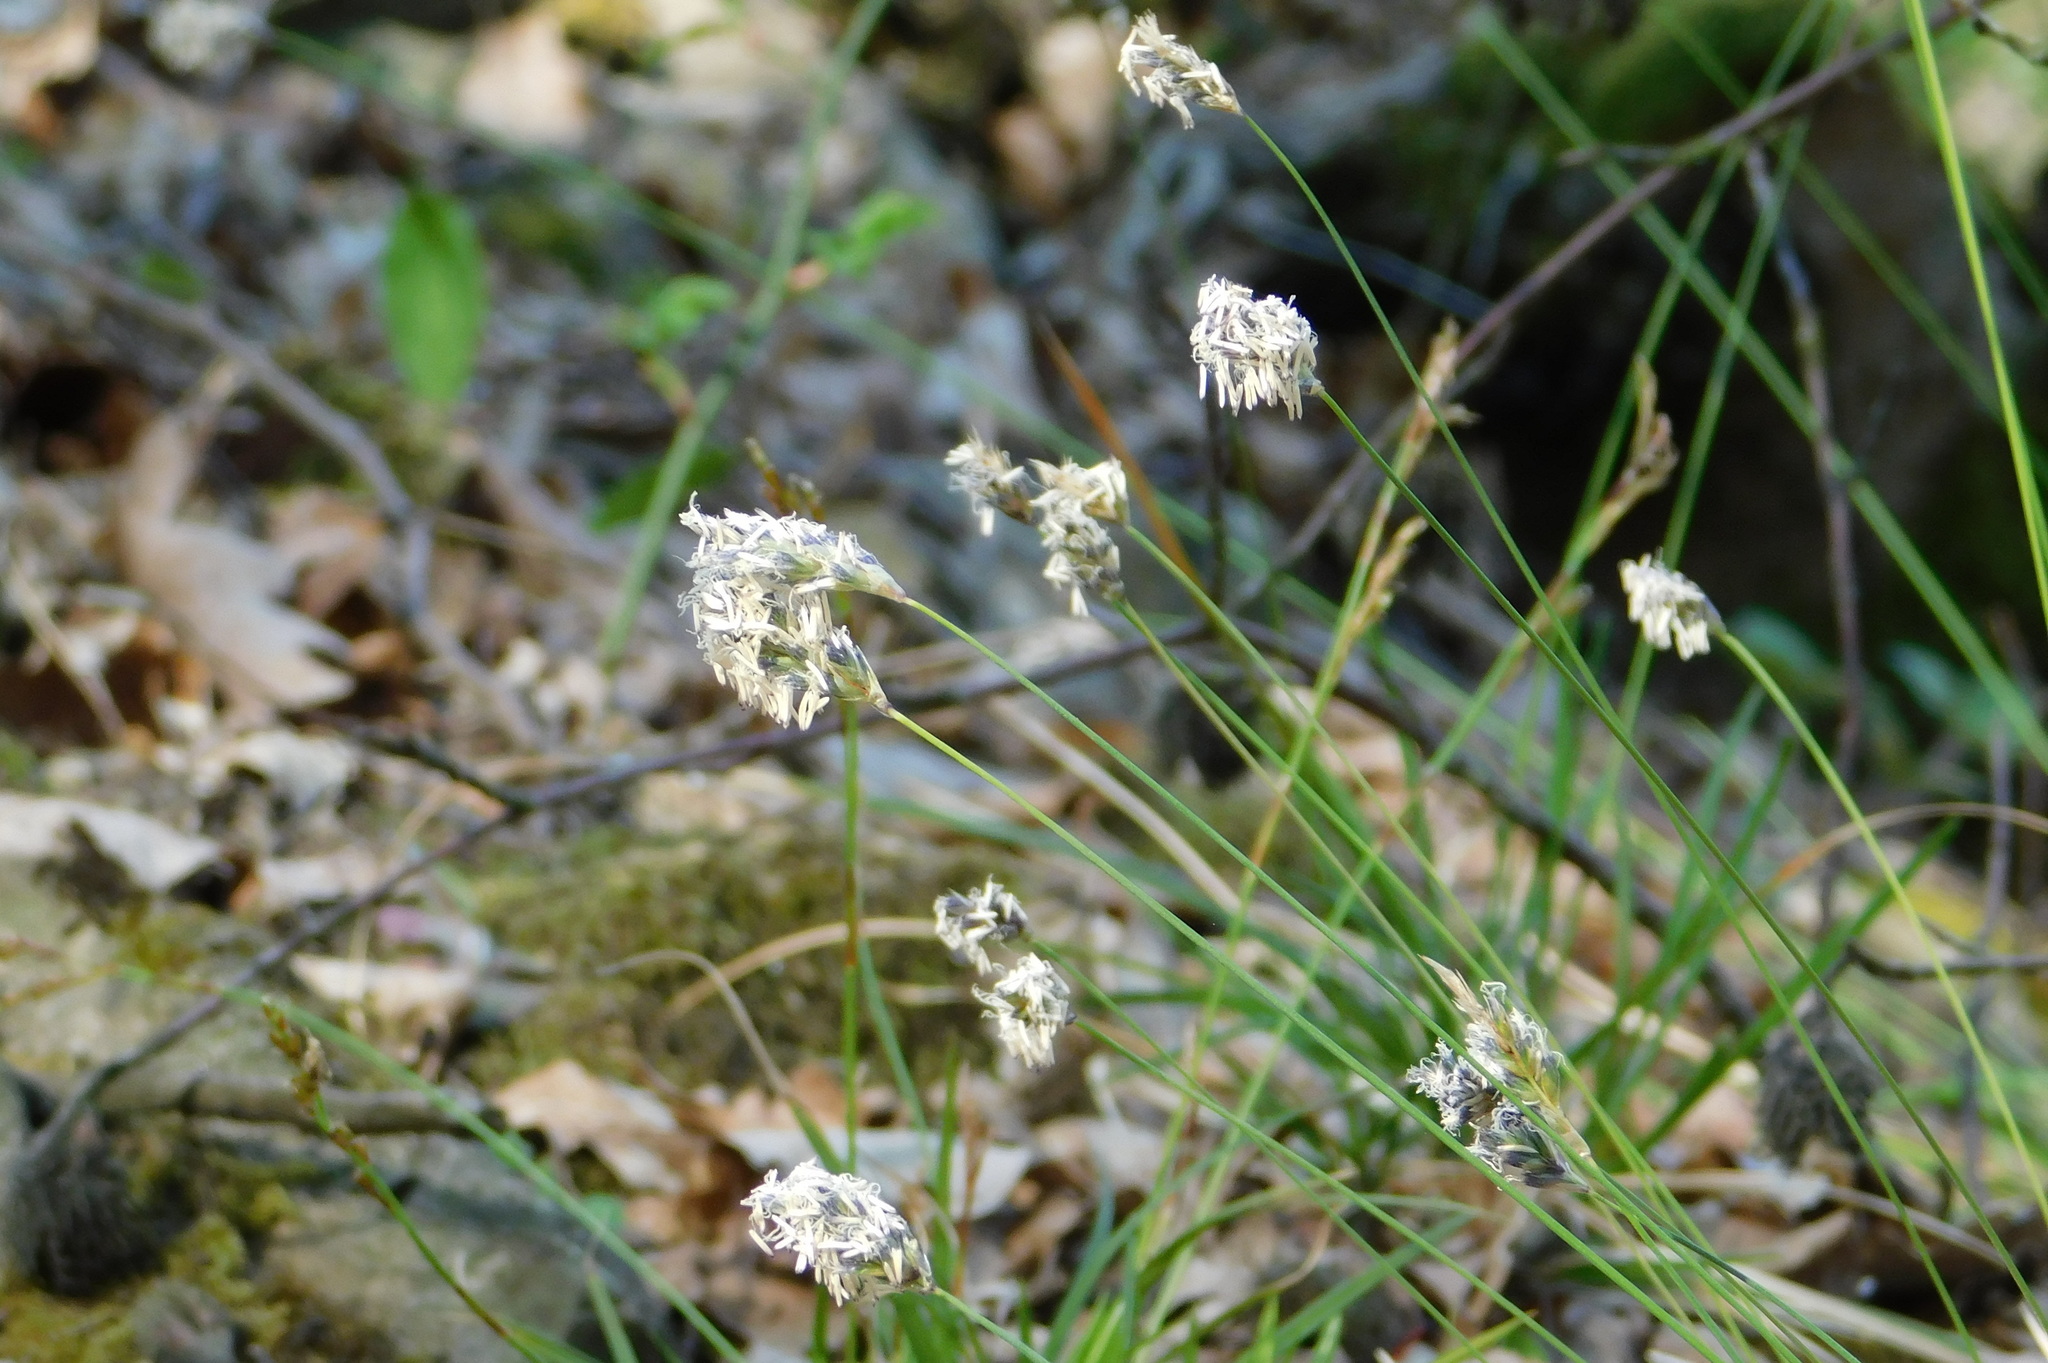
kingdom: Plantae
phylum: Tracheophyta
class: Liliopsida
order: Poales
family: Poaceae
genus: Sesleria
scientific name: Sesleria caerulea
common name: Blue moor-grass
